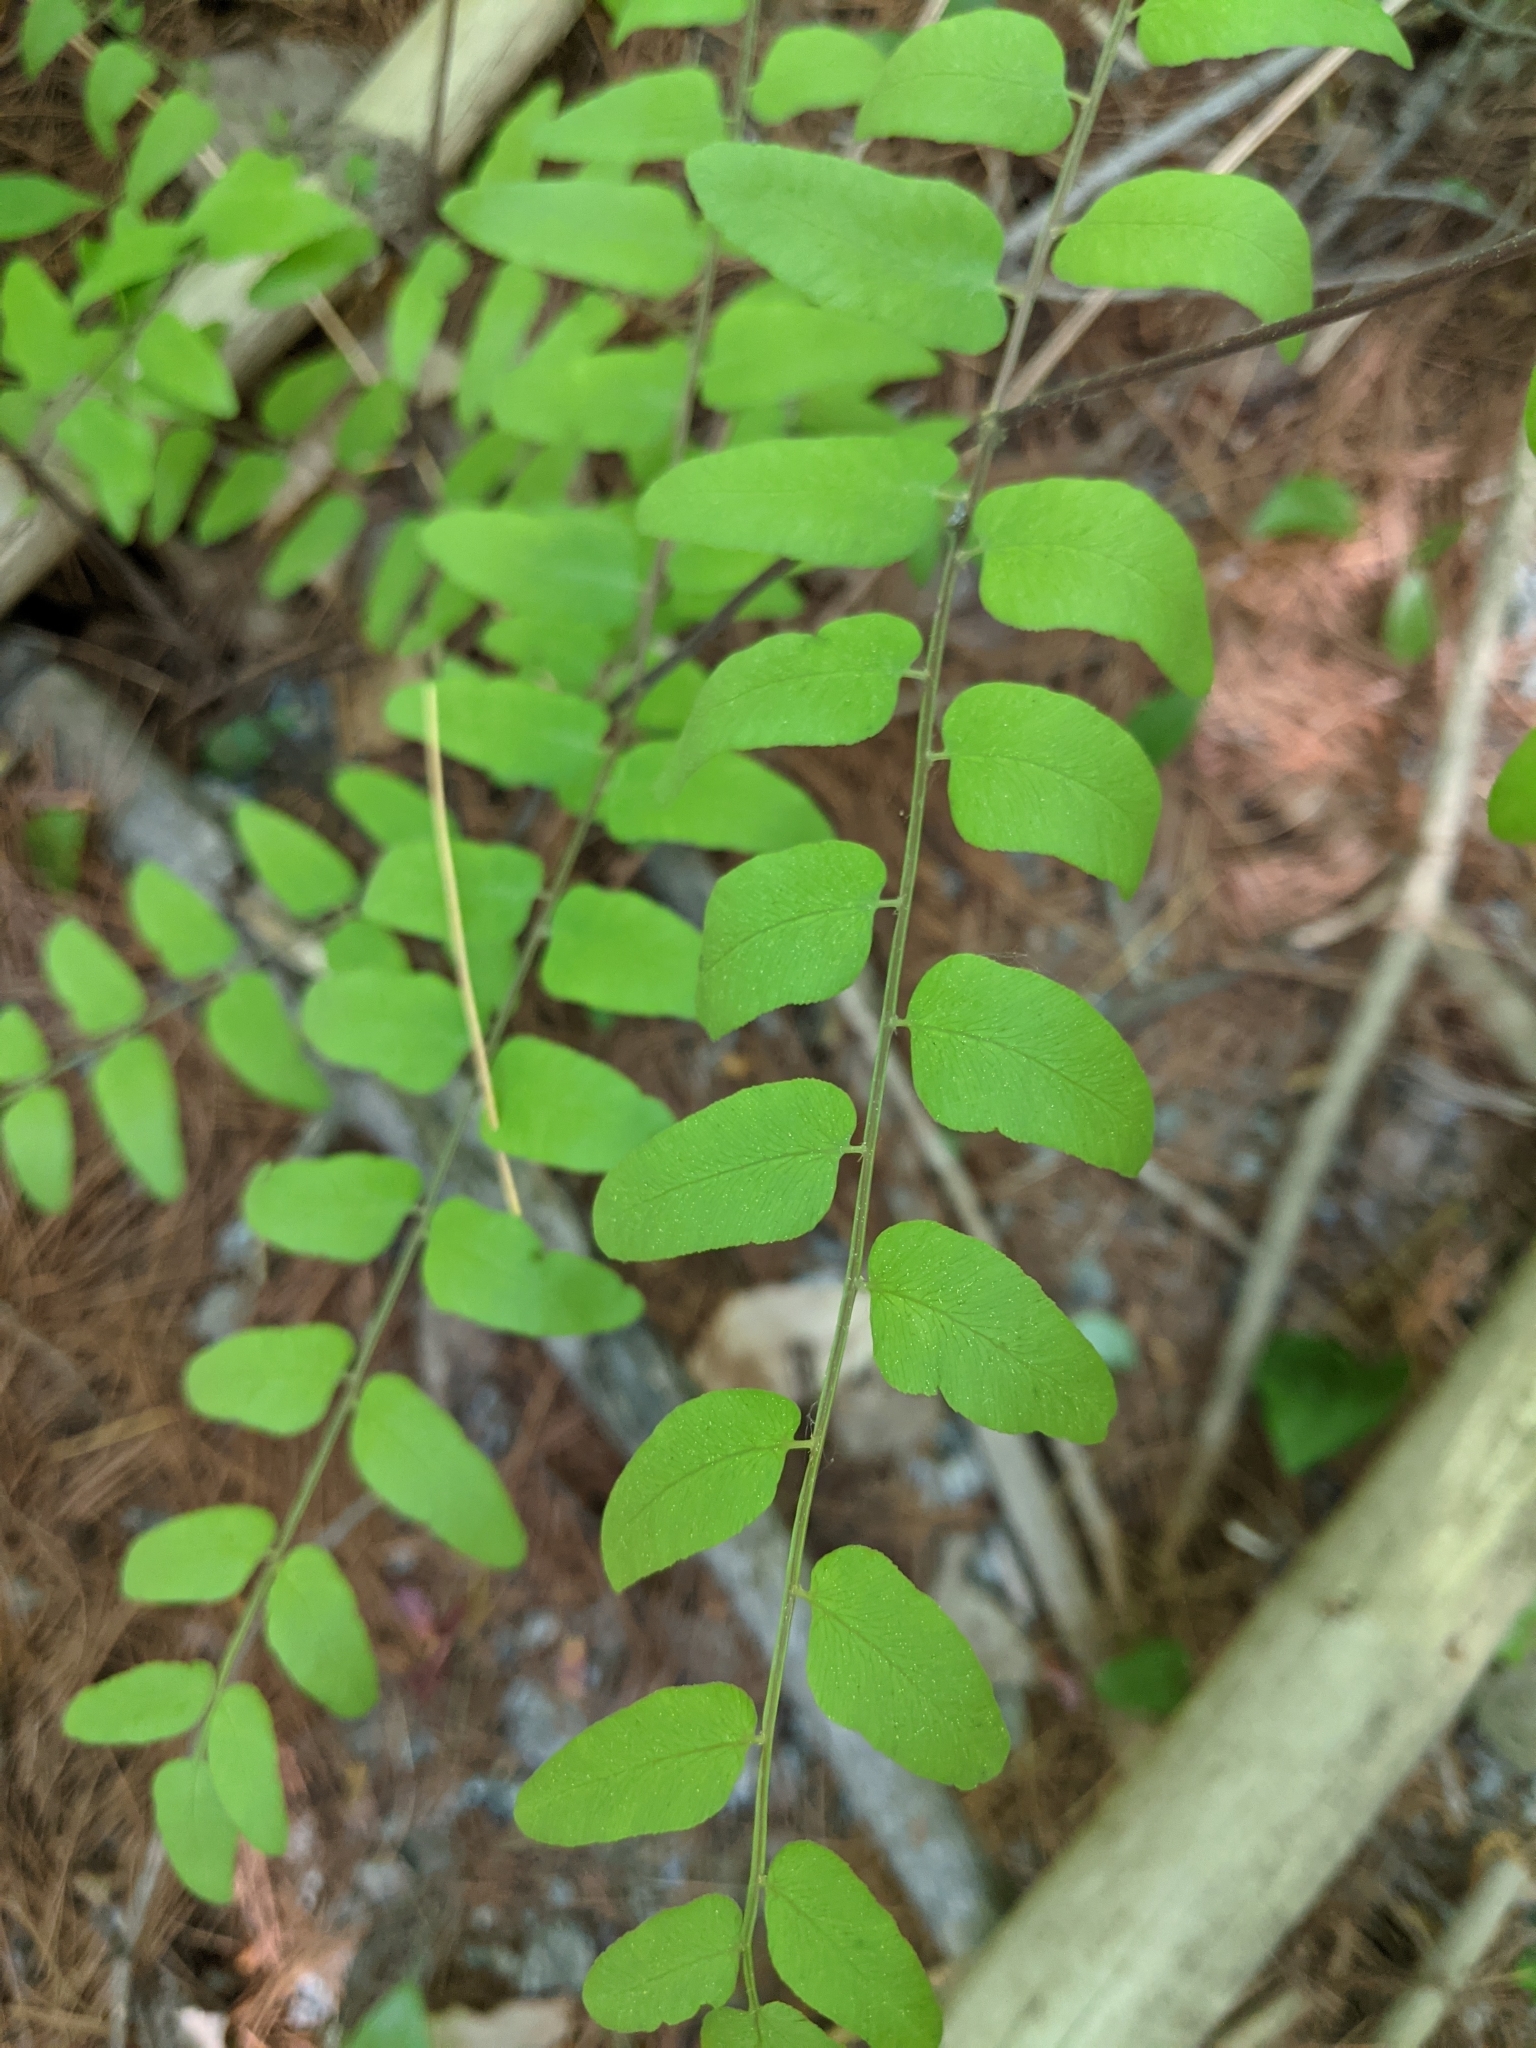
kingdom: Plantae
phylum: Tracheophyta
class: Polypodiopsida
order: Osmundales
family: Osmundaceae
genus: Osmunda
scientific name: Osmunda spectabilis
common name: American royal fern
